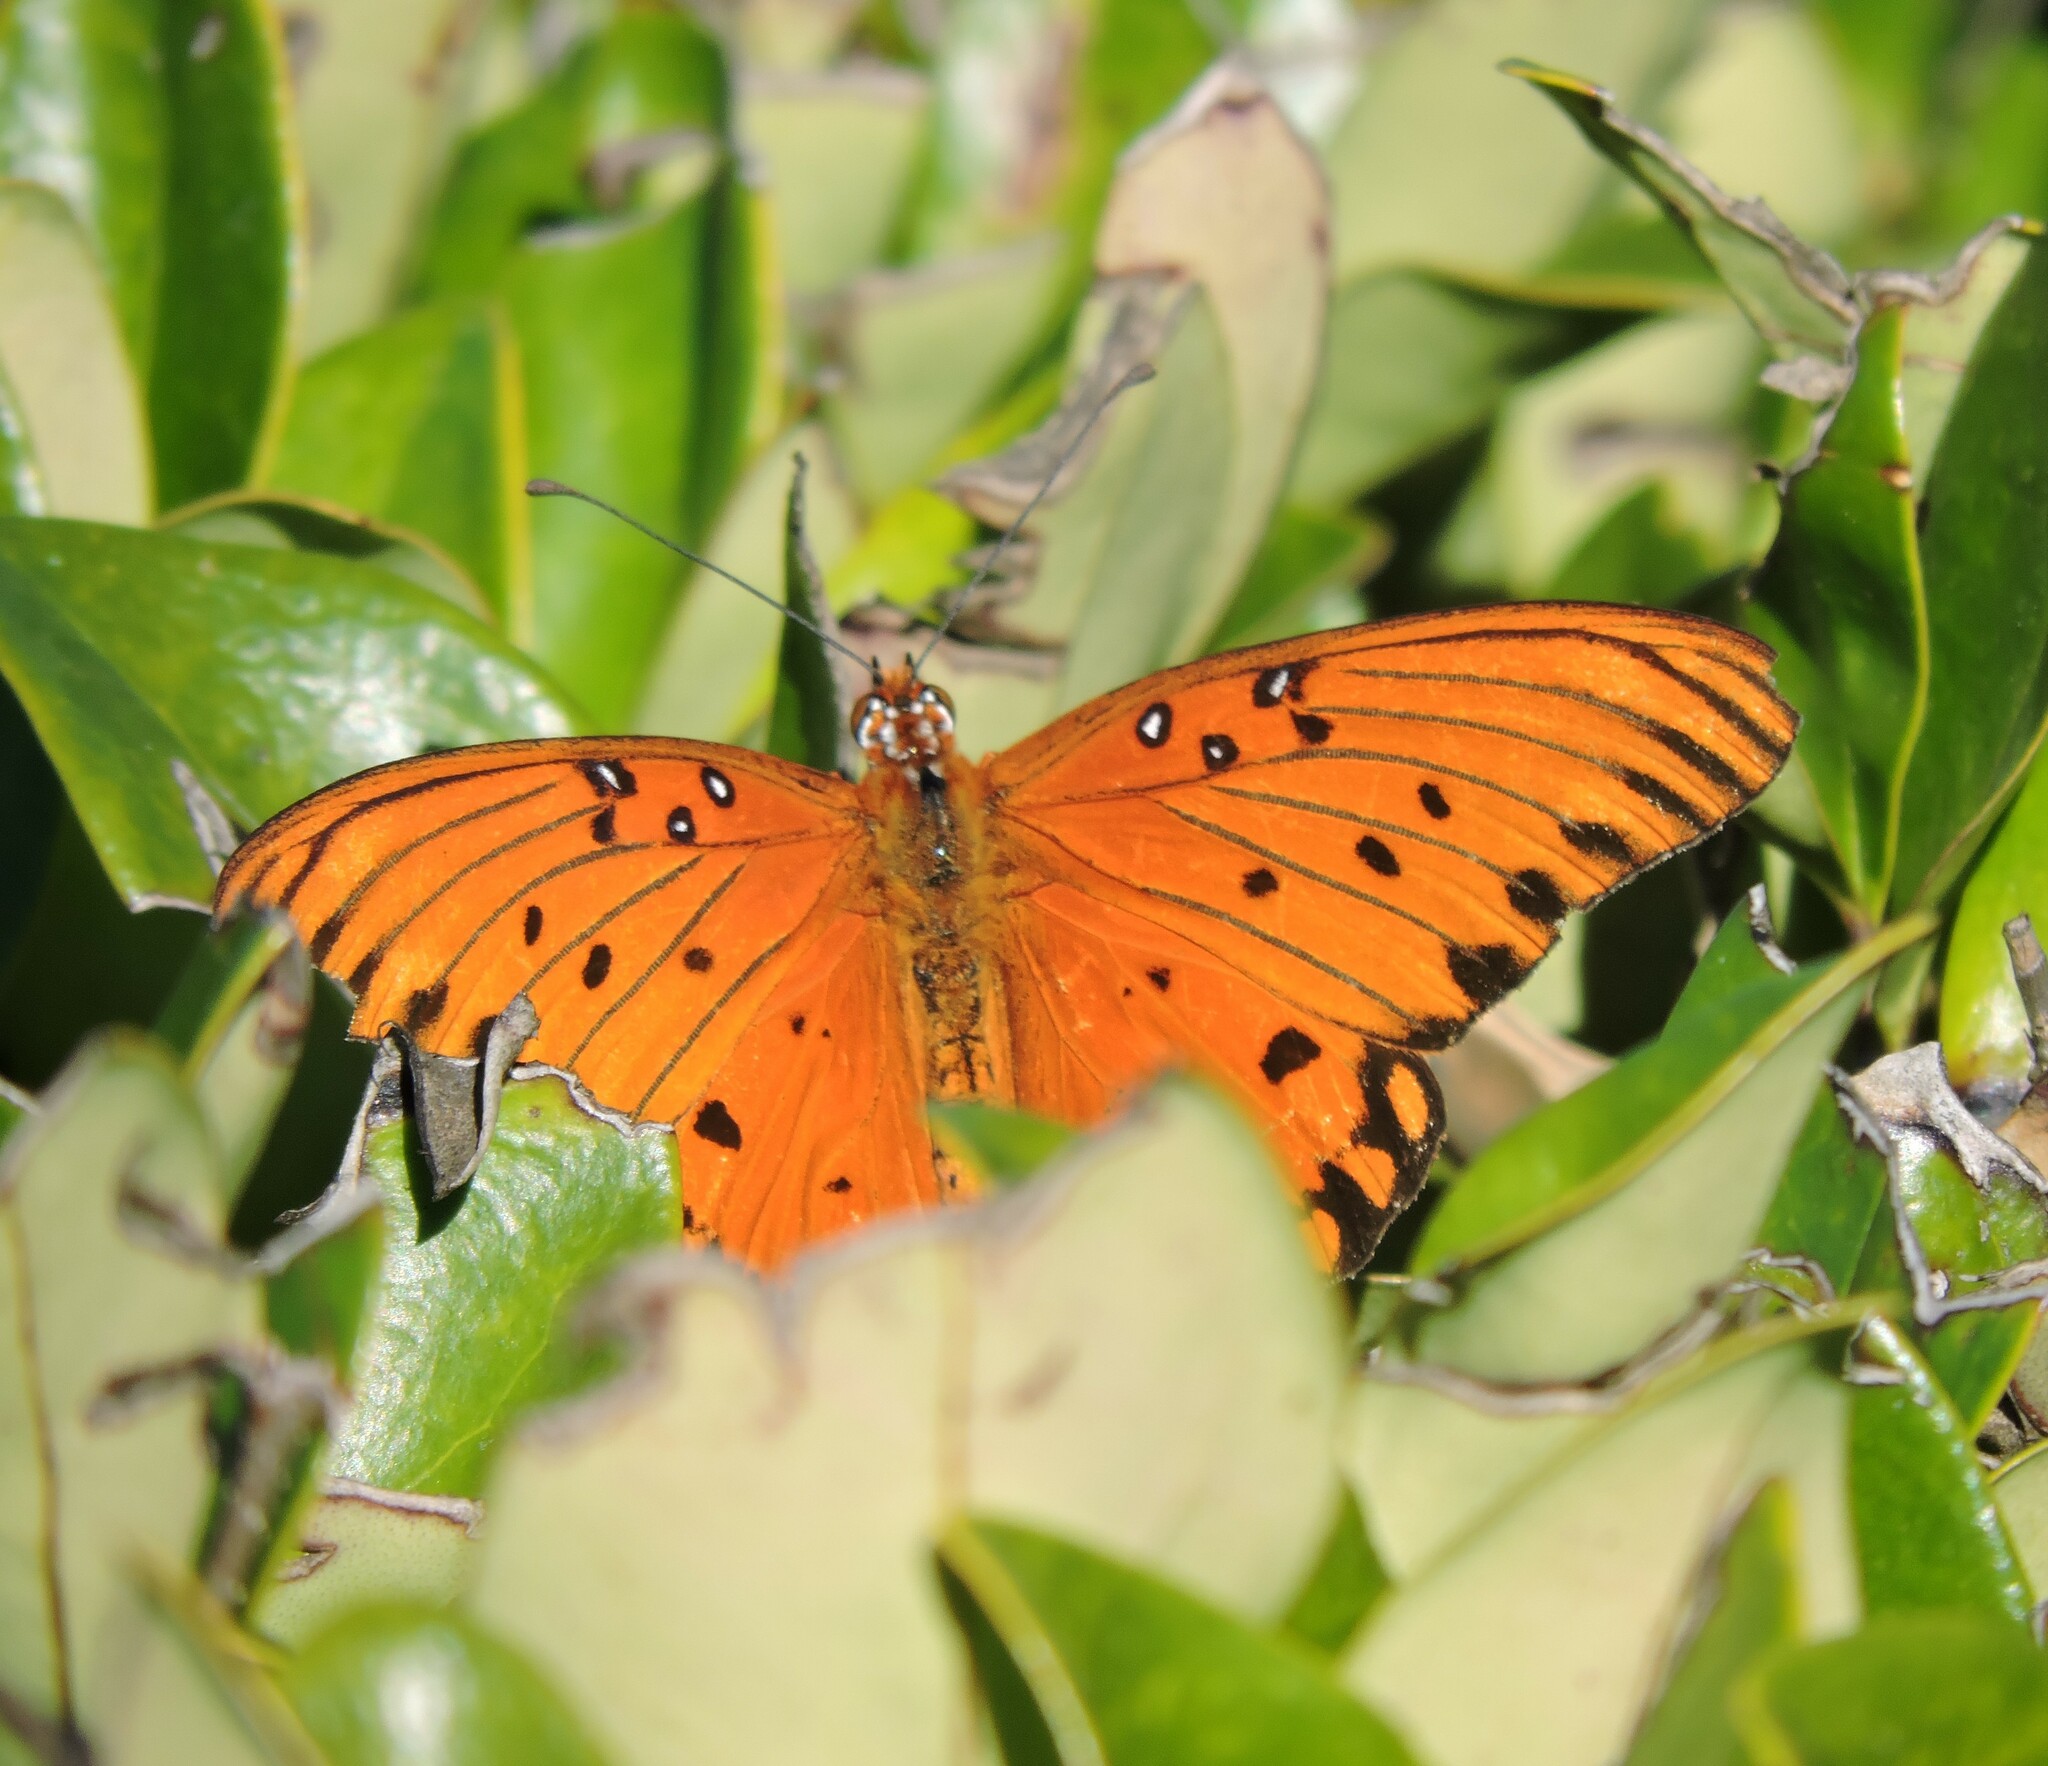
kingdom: Animalia
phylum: Arthropoda
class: Insecta
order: Lepidoptera
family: Nymphalidae
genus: Dione
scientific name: Dione vanillae
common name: Gulf fritillary
